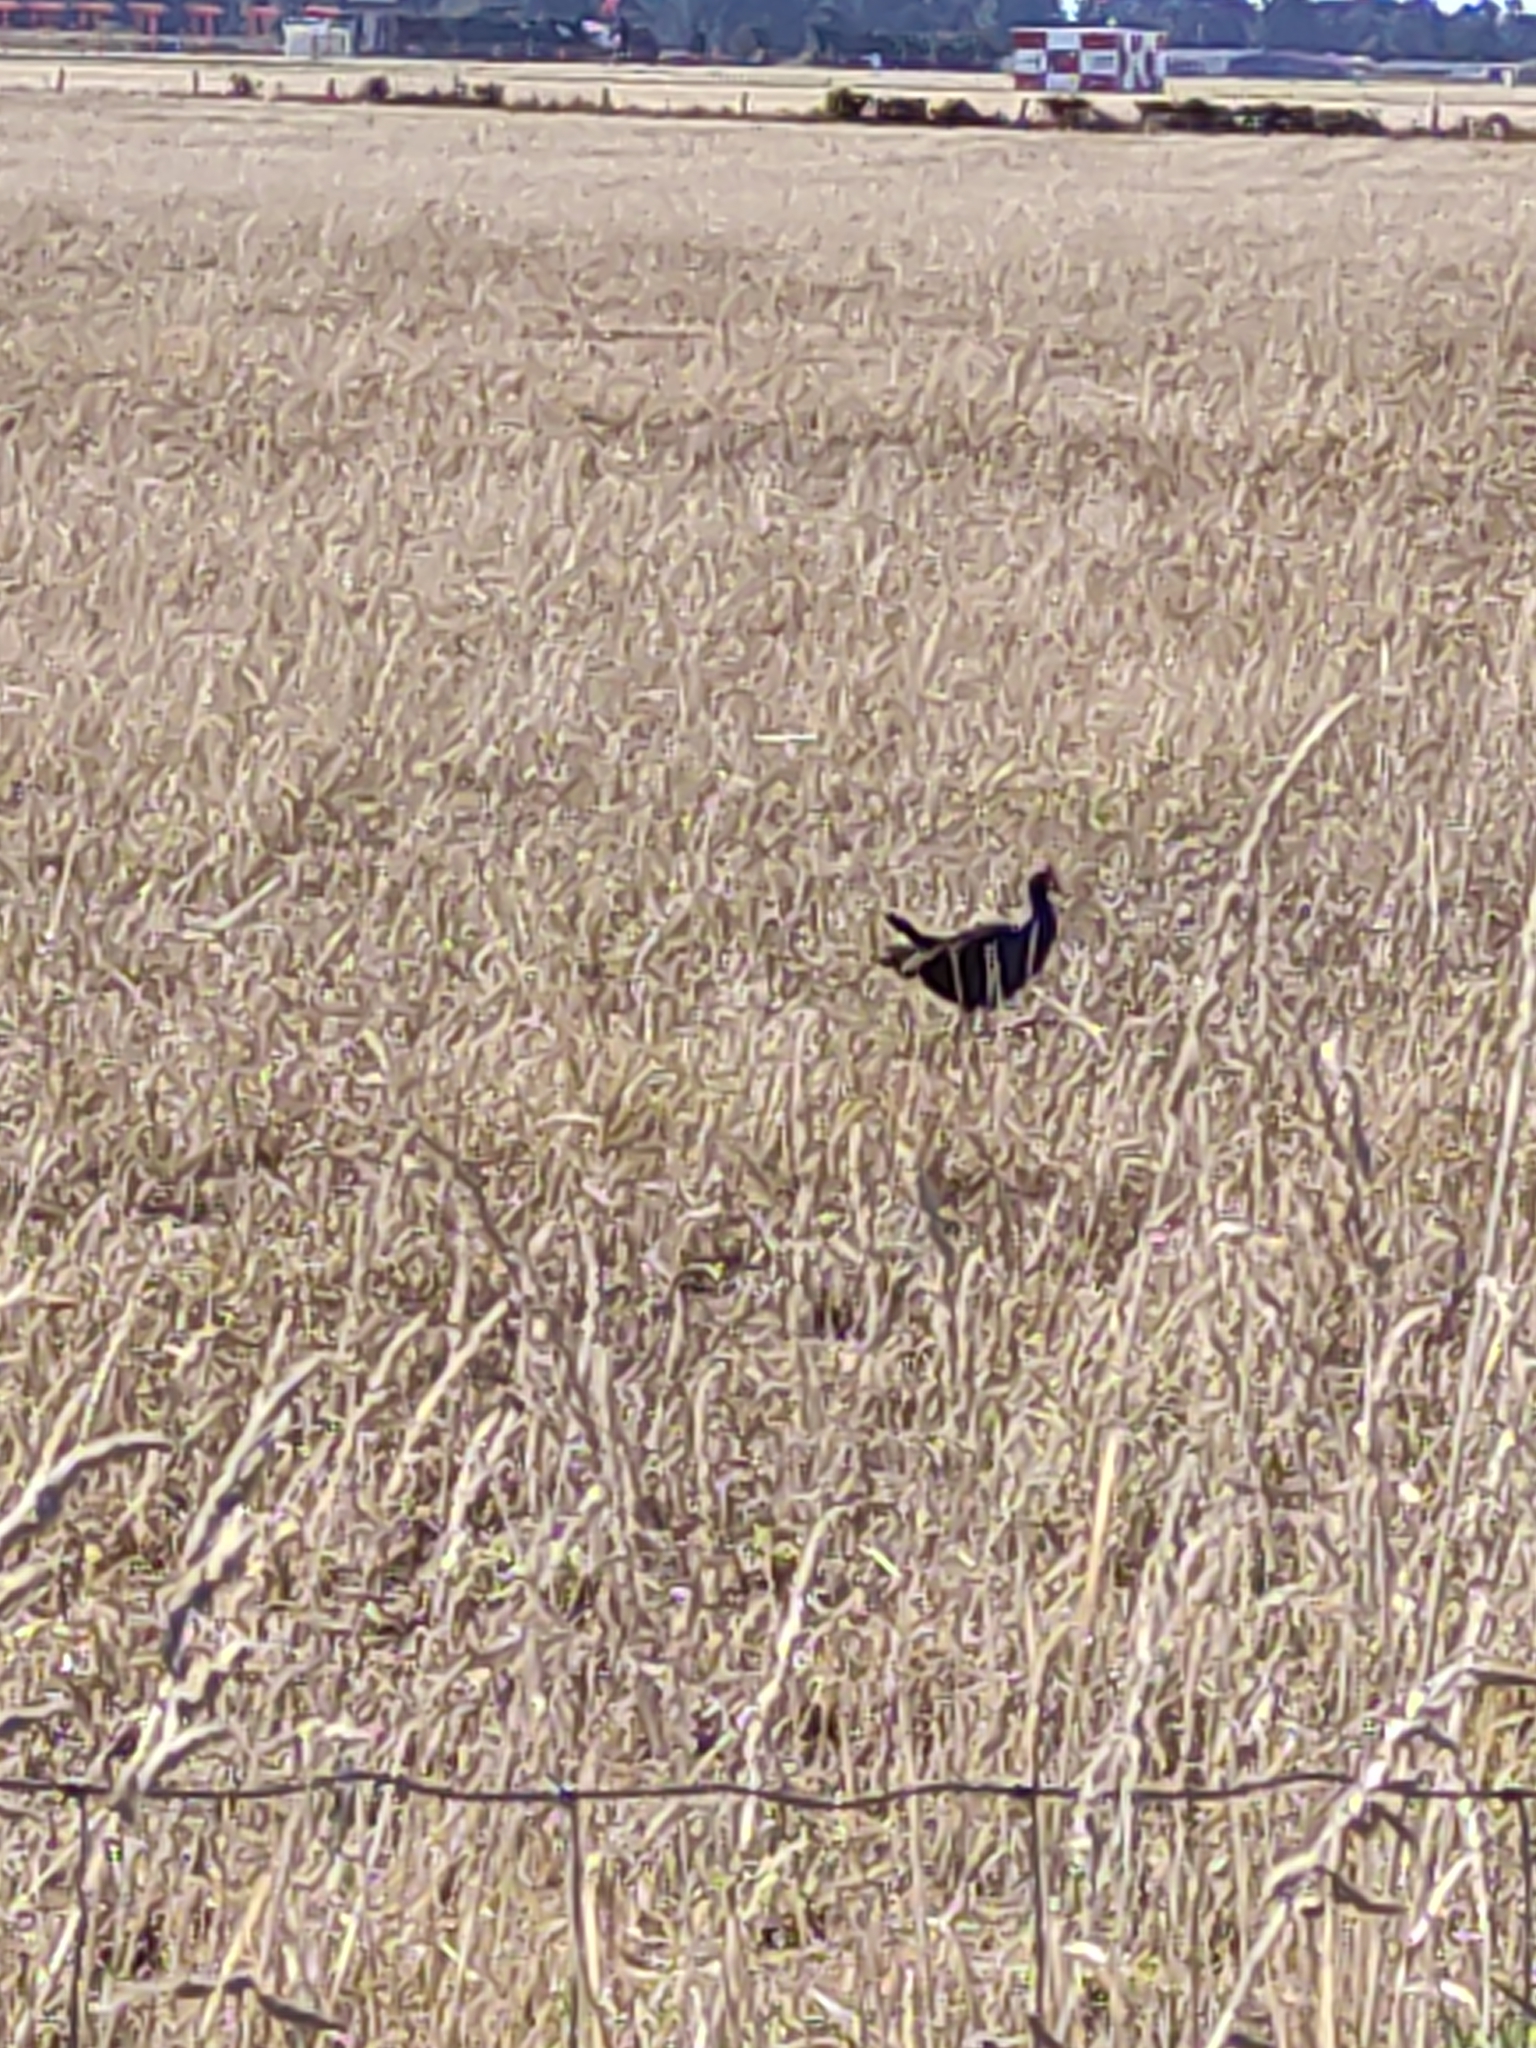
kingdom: Animalia
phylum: Chordata
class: Aves
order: Gruiformes
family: Rallidae
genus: Porphyrio
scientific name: Porphyrio melanotus
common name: Australasian swamphen
